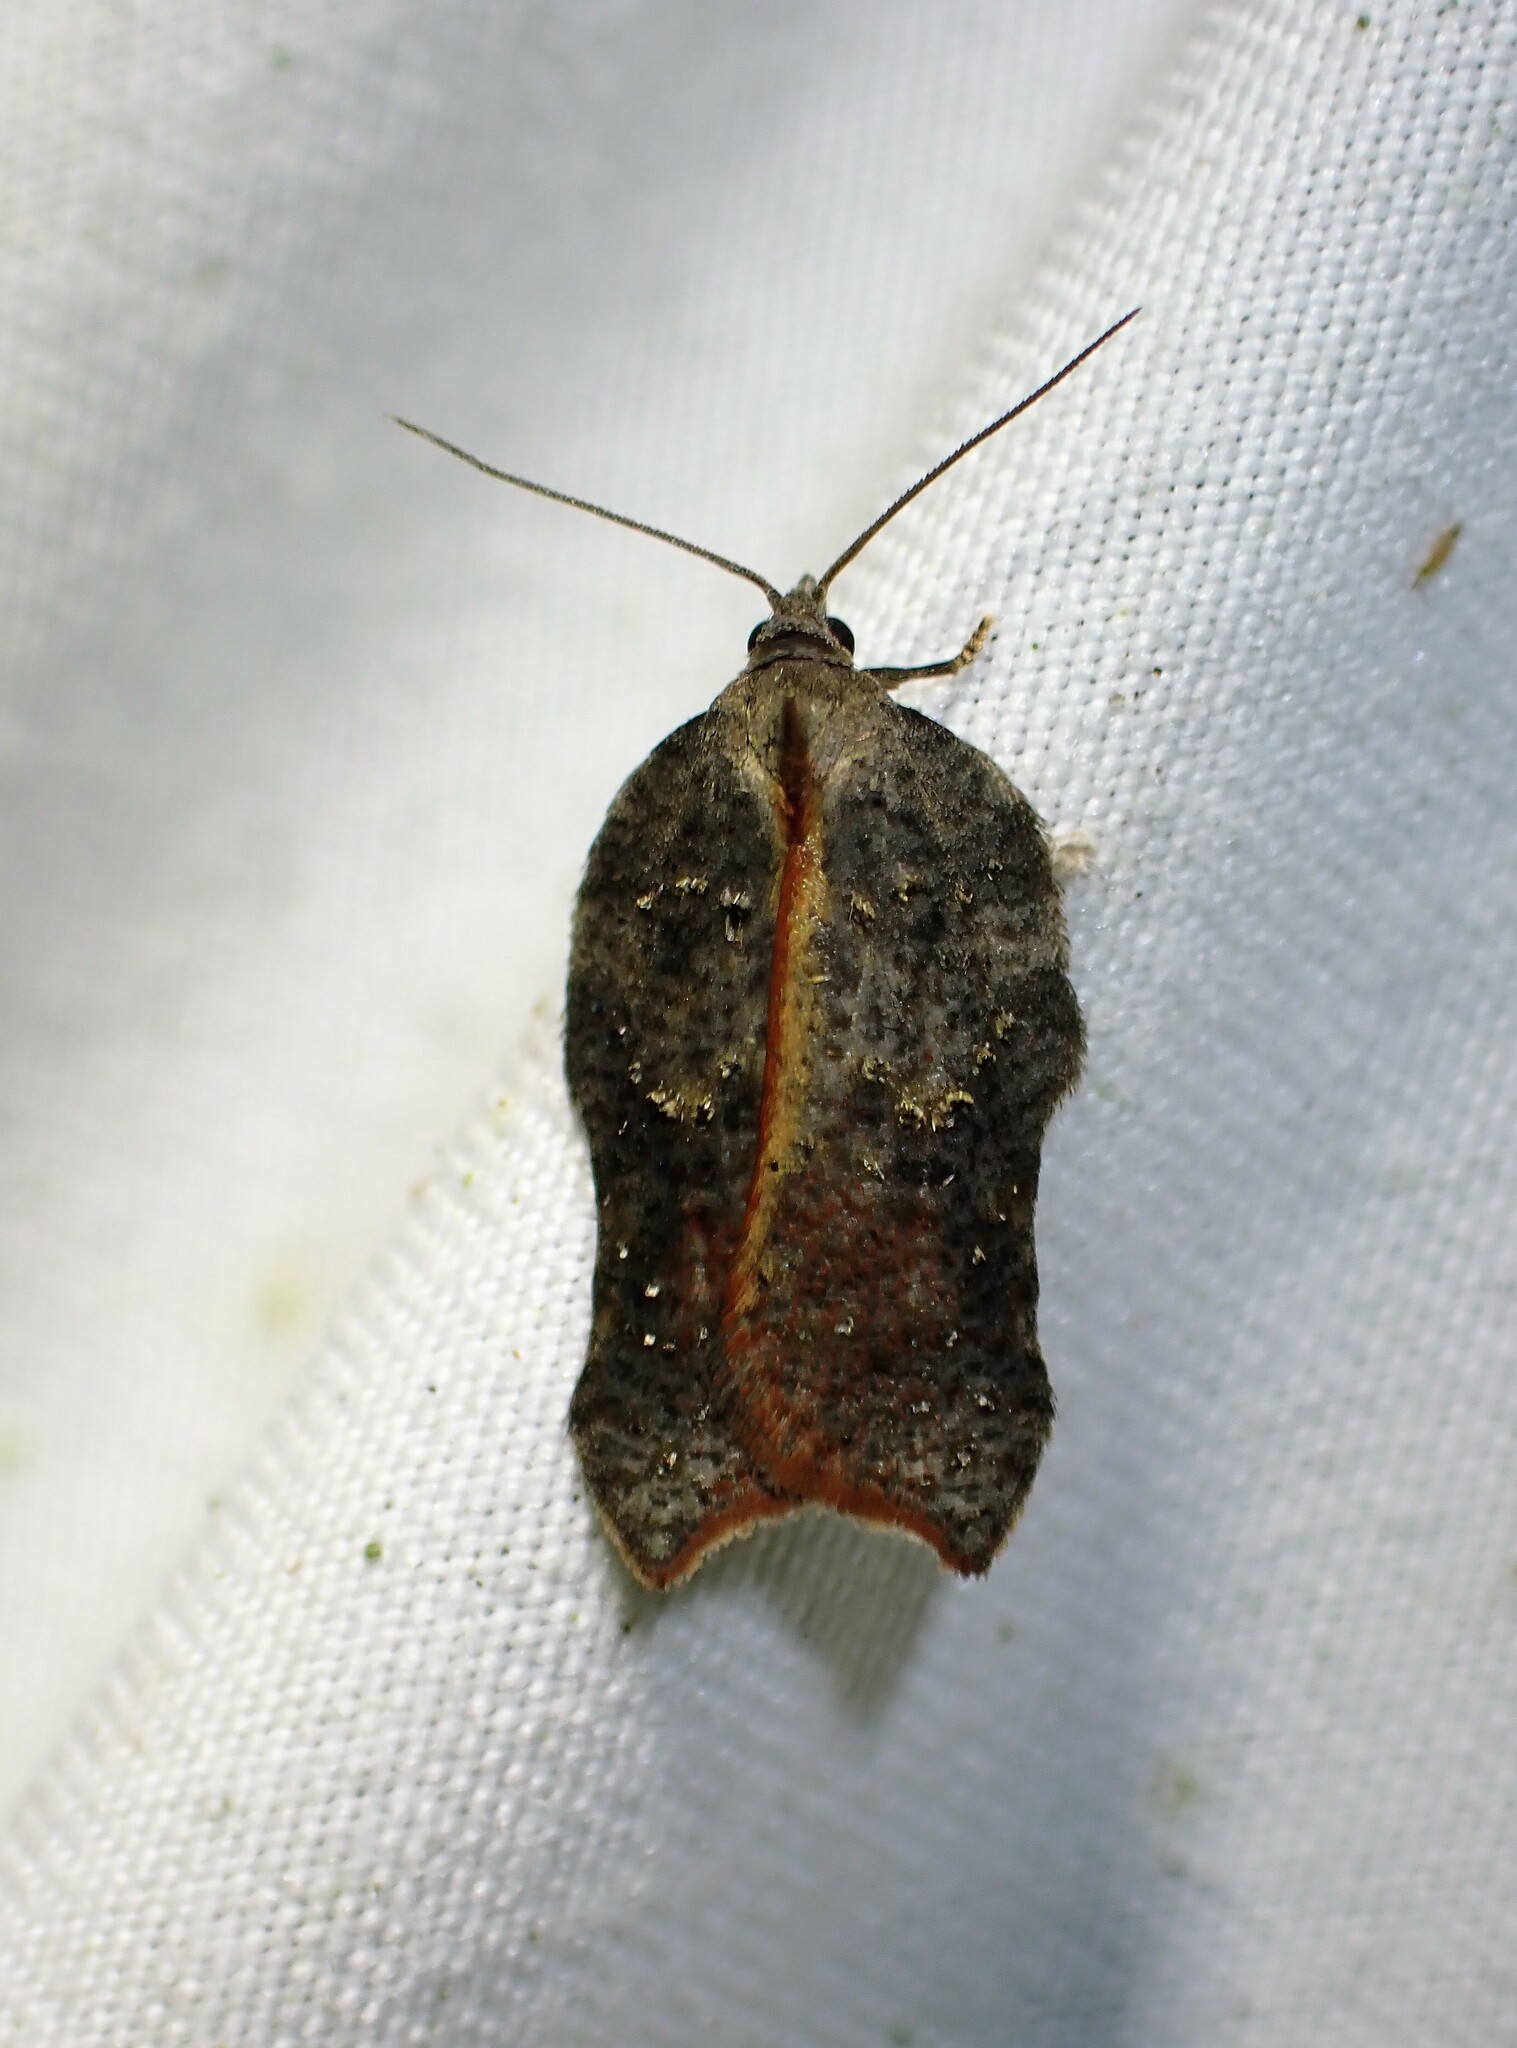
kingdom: Animalia
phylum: Arthropoda
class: Insecta
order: Lepidoptera
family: Tortricidae
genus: Acleris
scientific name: Acleris effractana
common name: Hook-winged tortrix moth
